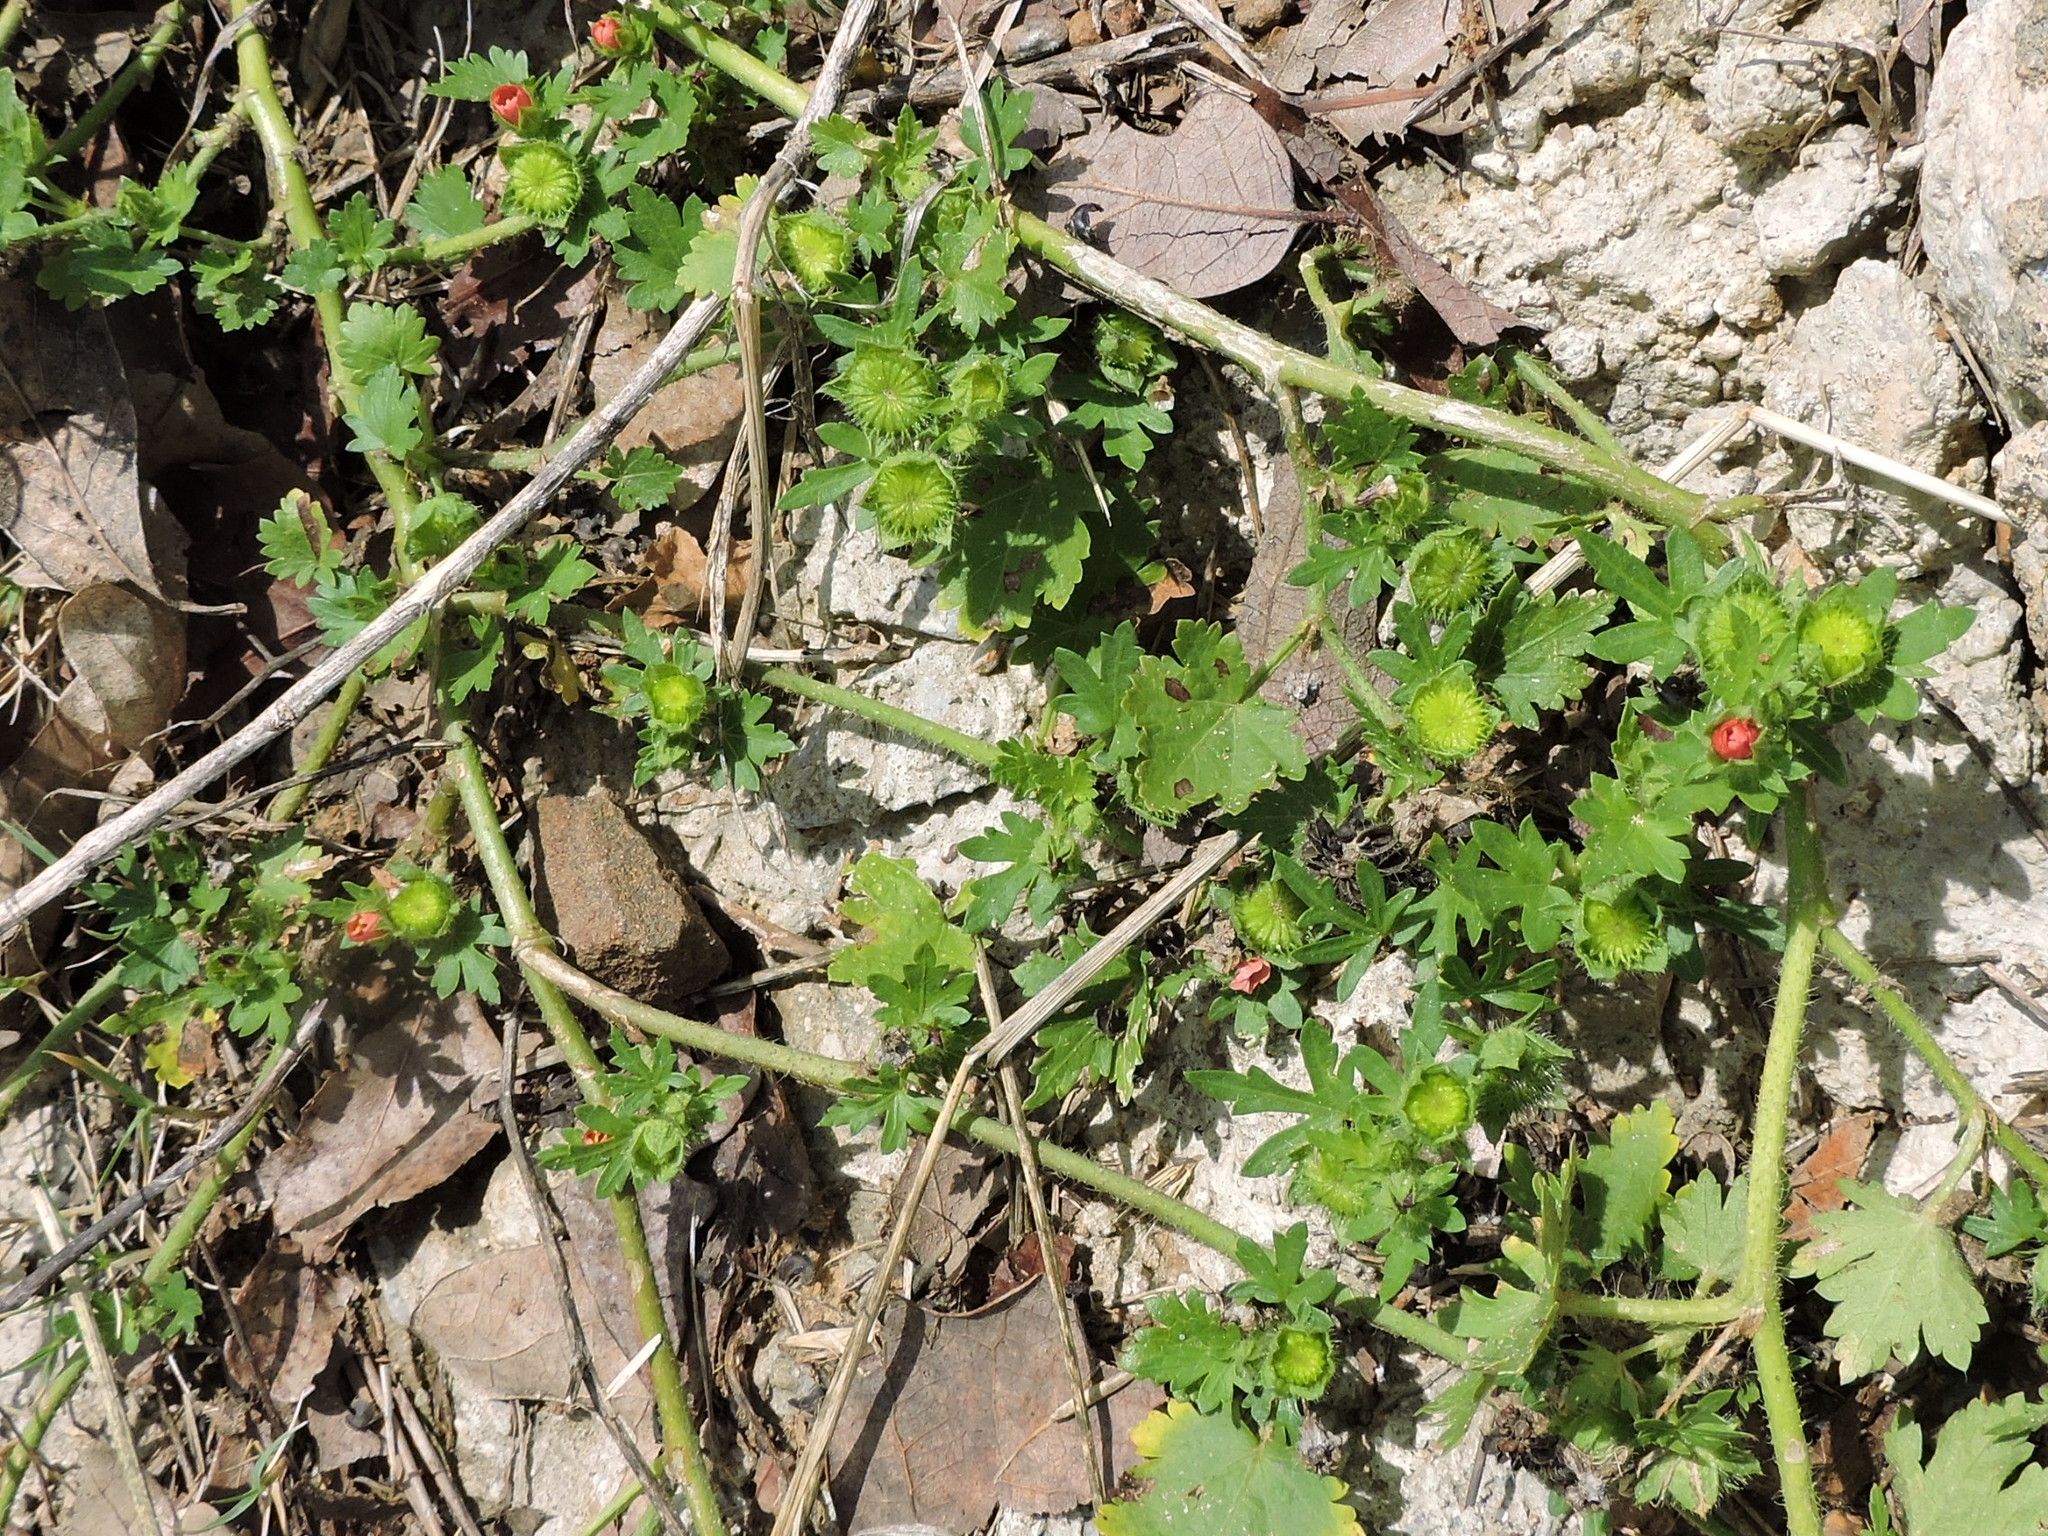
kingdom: Plantae
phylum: Tracheophyta
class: Magnoliopsida
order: Malvales
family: Malvaceae
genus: Modiola
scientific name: Modiola caroliniana
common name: Carolina bristlemallow
